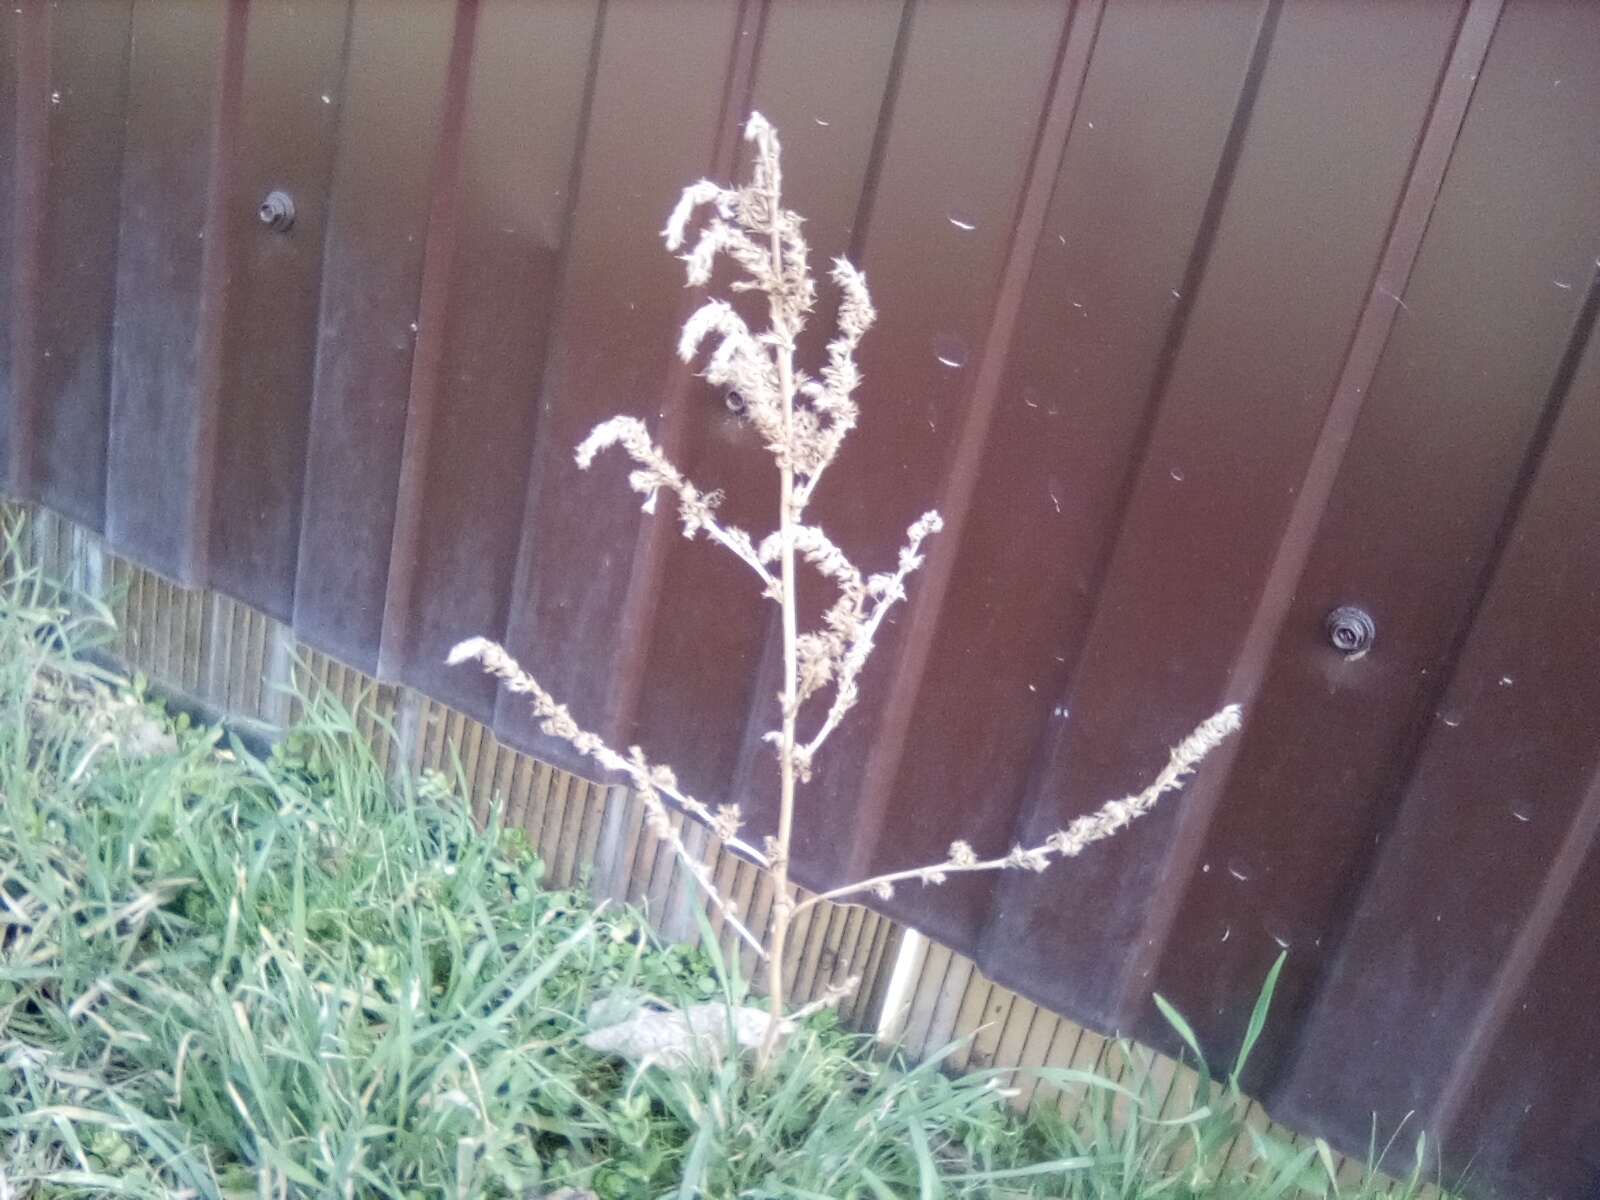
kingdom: Plantae
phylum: Tracheophyta
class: Magnoliopsida
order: Caryophyllales
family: Amaranthaceae
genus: Amaranthus
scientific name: Amaranthus retroflexus
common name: Redroot amaranth
